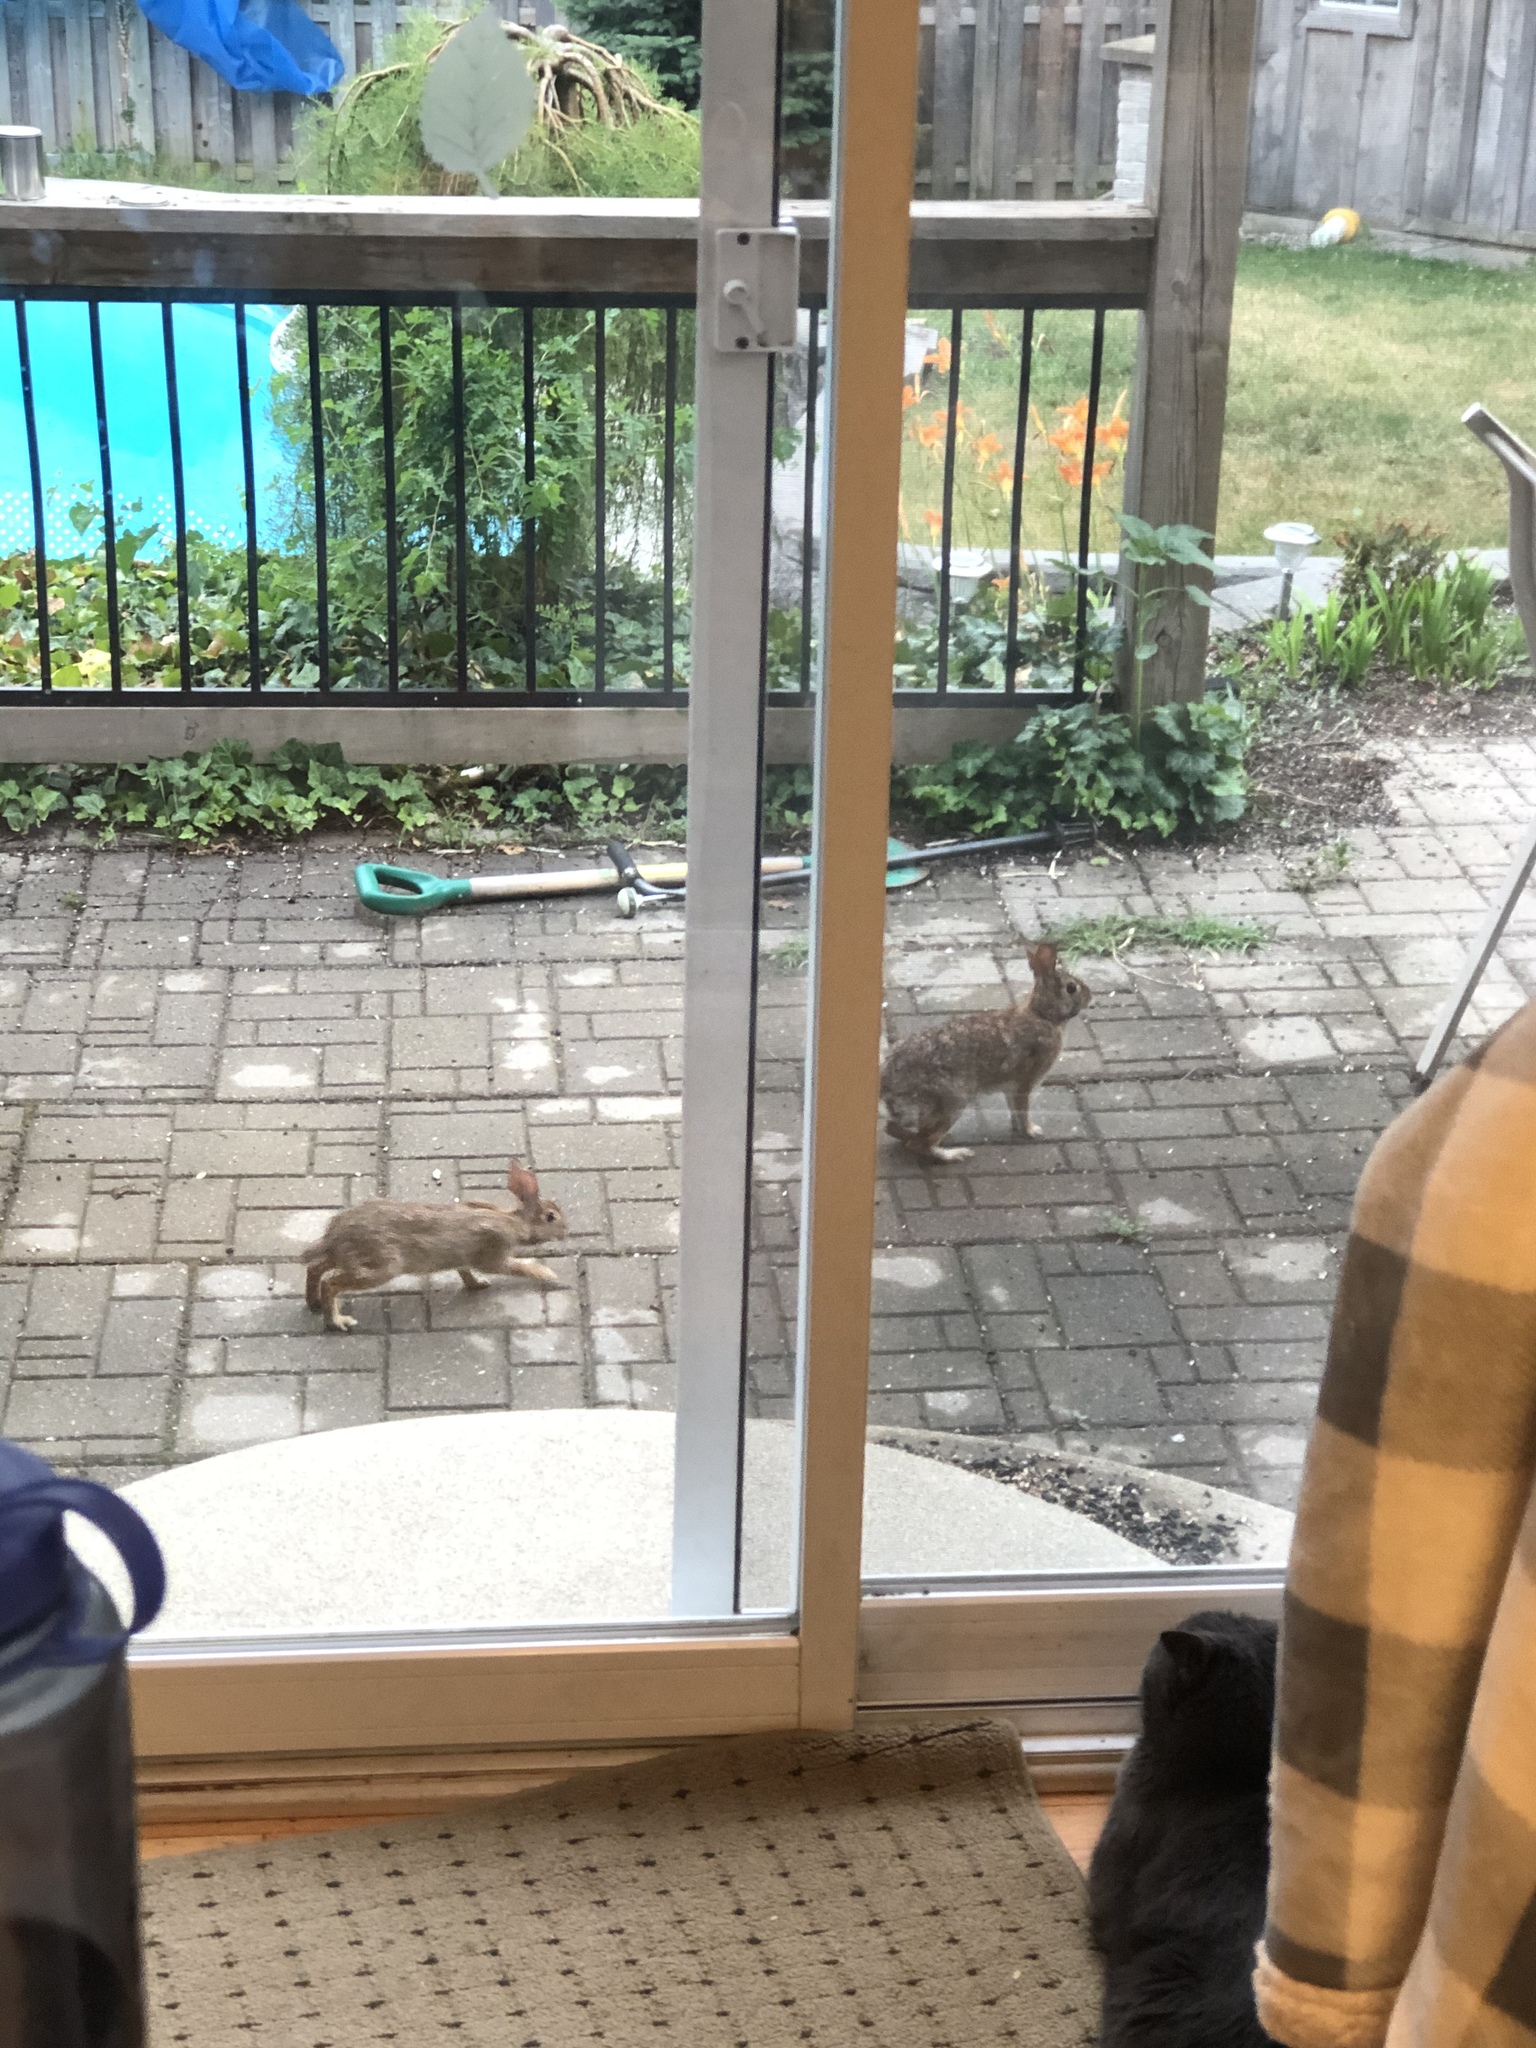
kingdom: Animalia
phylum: Chordata
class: Mammalia
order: Lagomorpha
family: Leporidae
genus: Sylvilagus
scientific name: Sylvilagus floridanus
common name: Eastern cottontail
